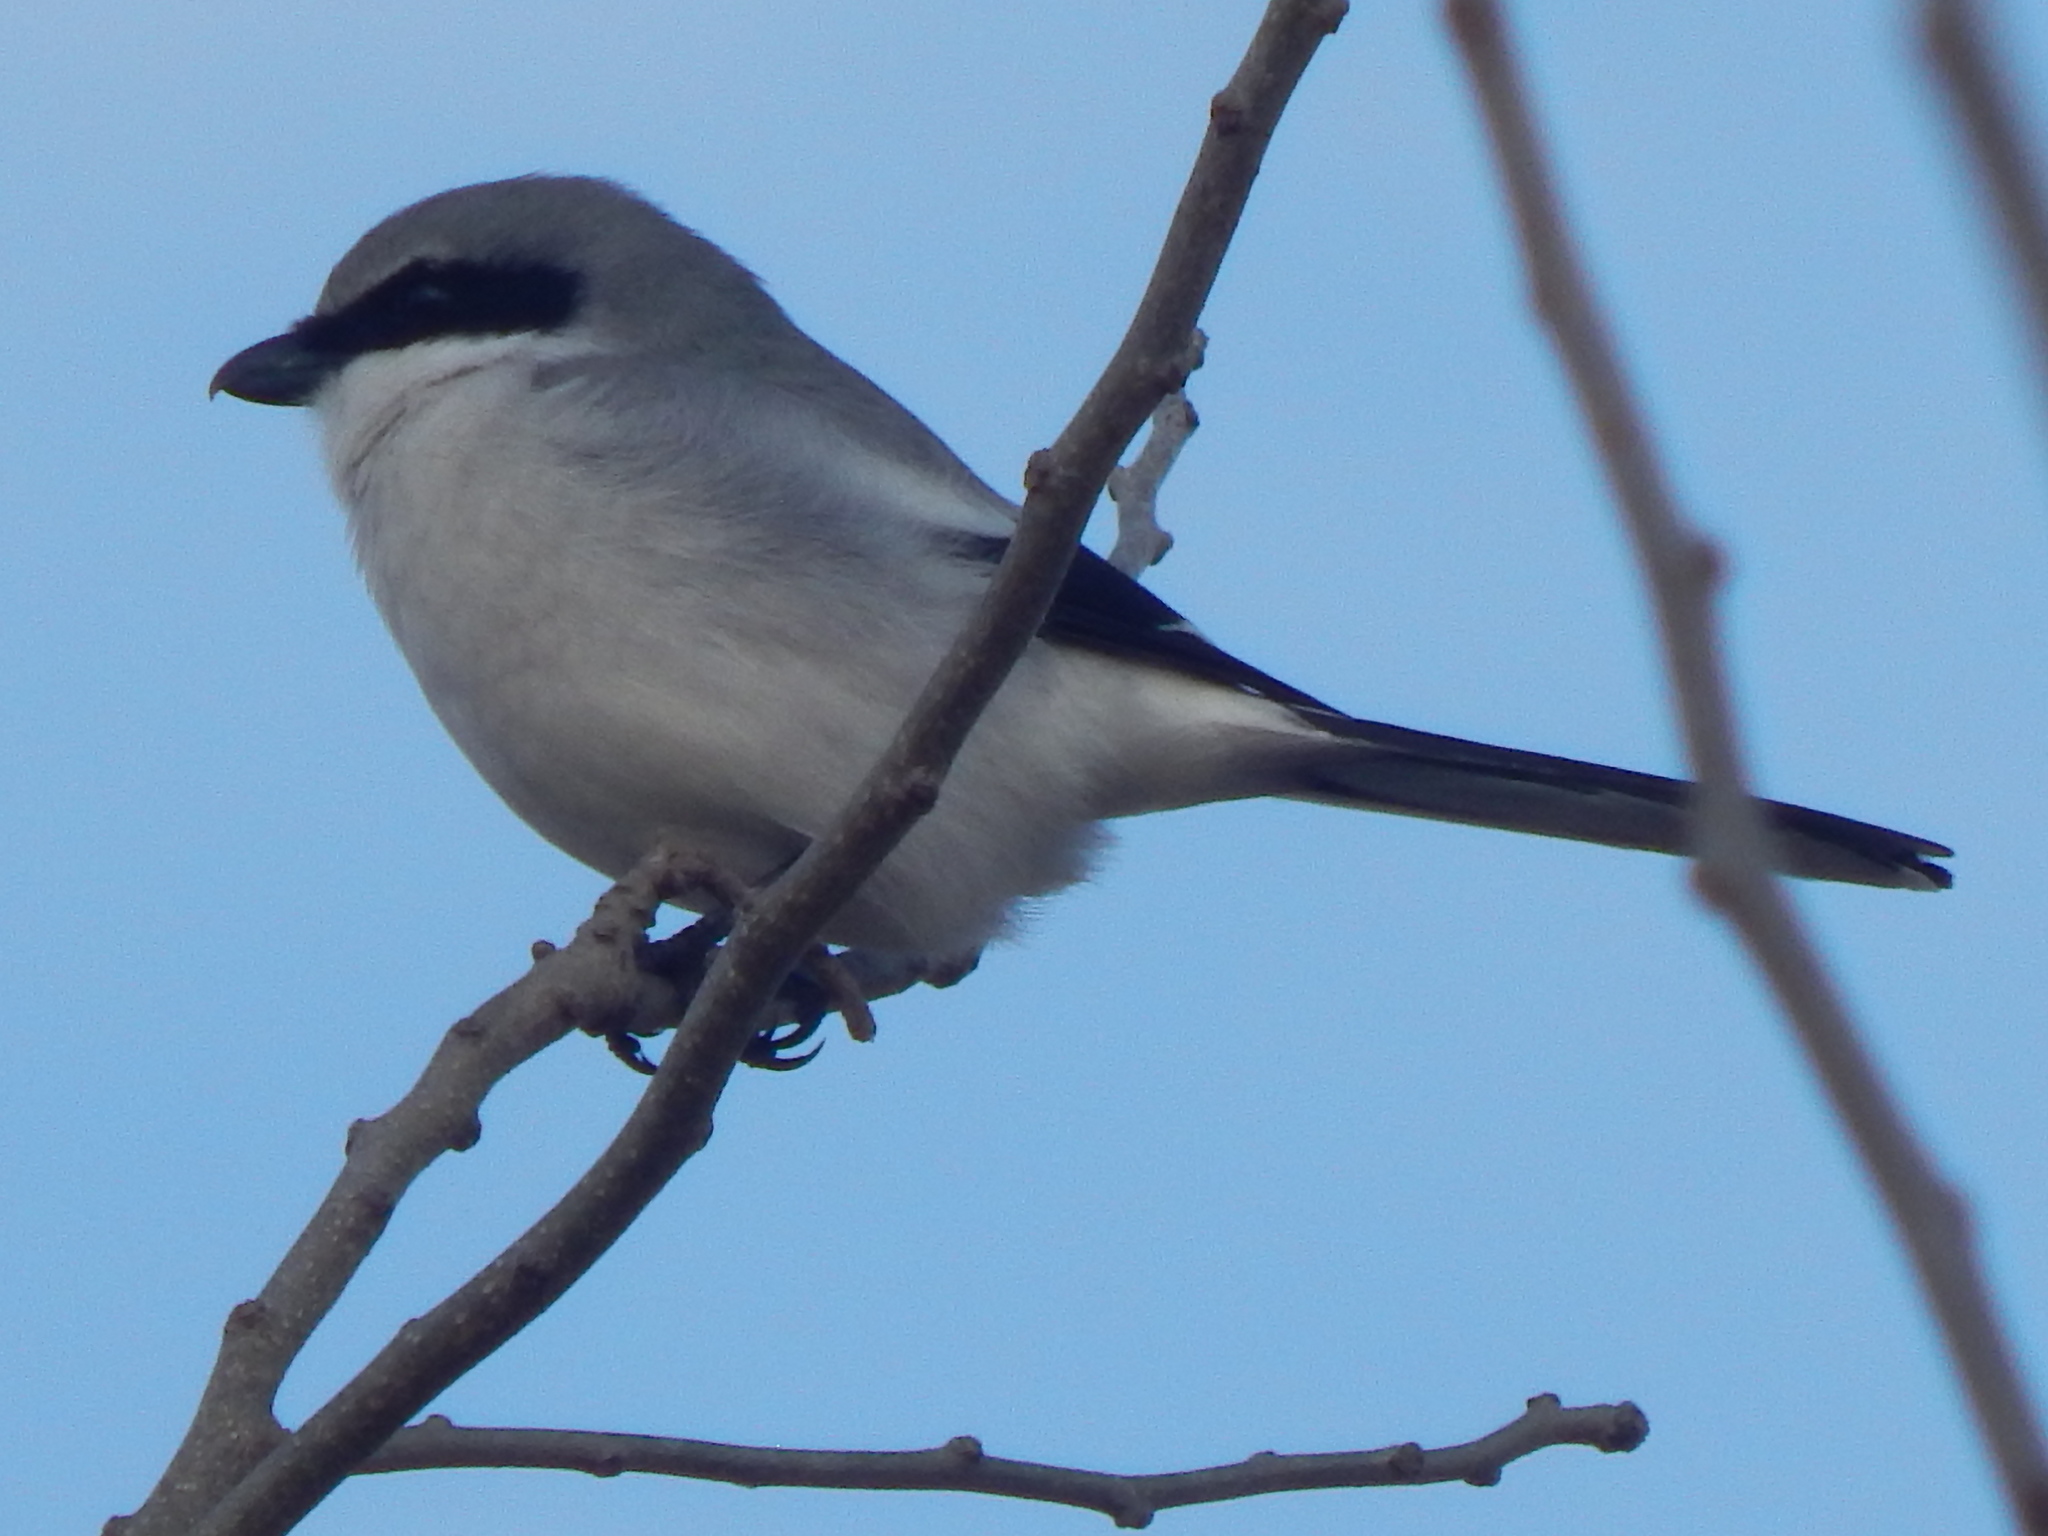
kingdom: Animalia
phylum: Chordata
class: Aves
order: Passeriformes
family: Laniidae
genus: Lanius
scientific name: Lanius ludovicianus
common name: Loggerhead shrike
